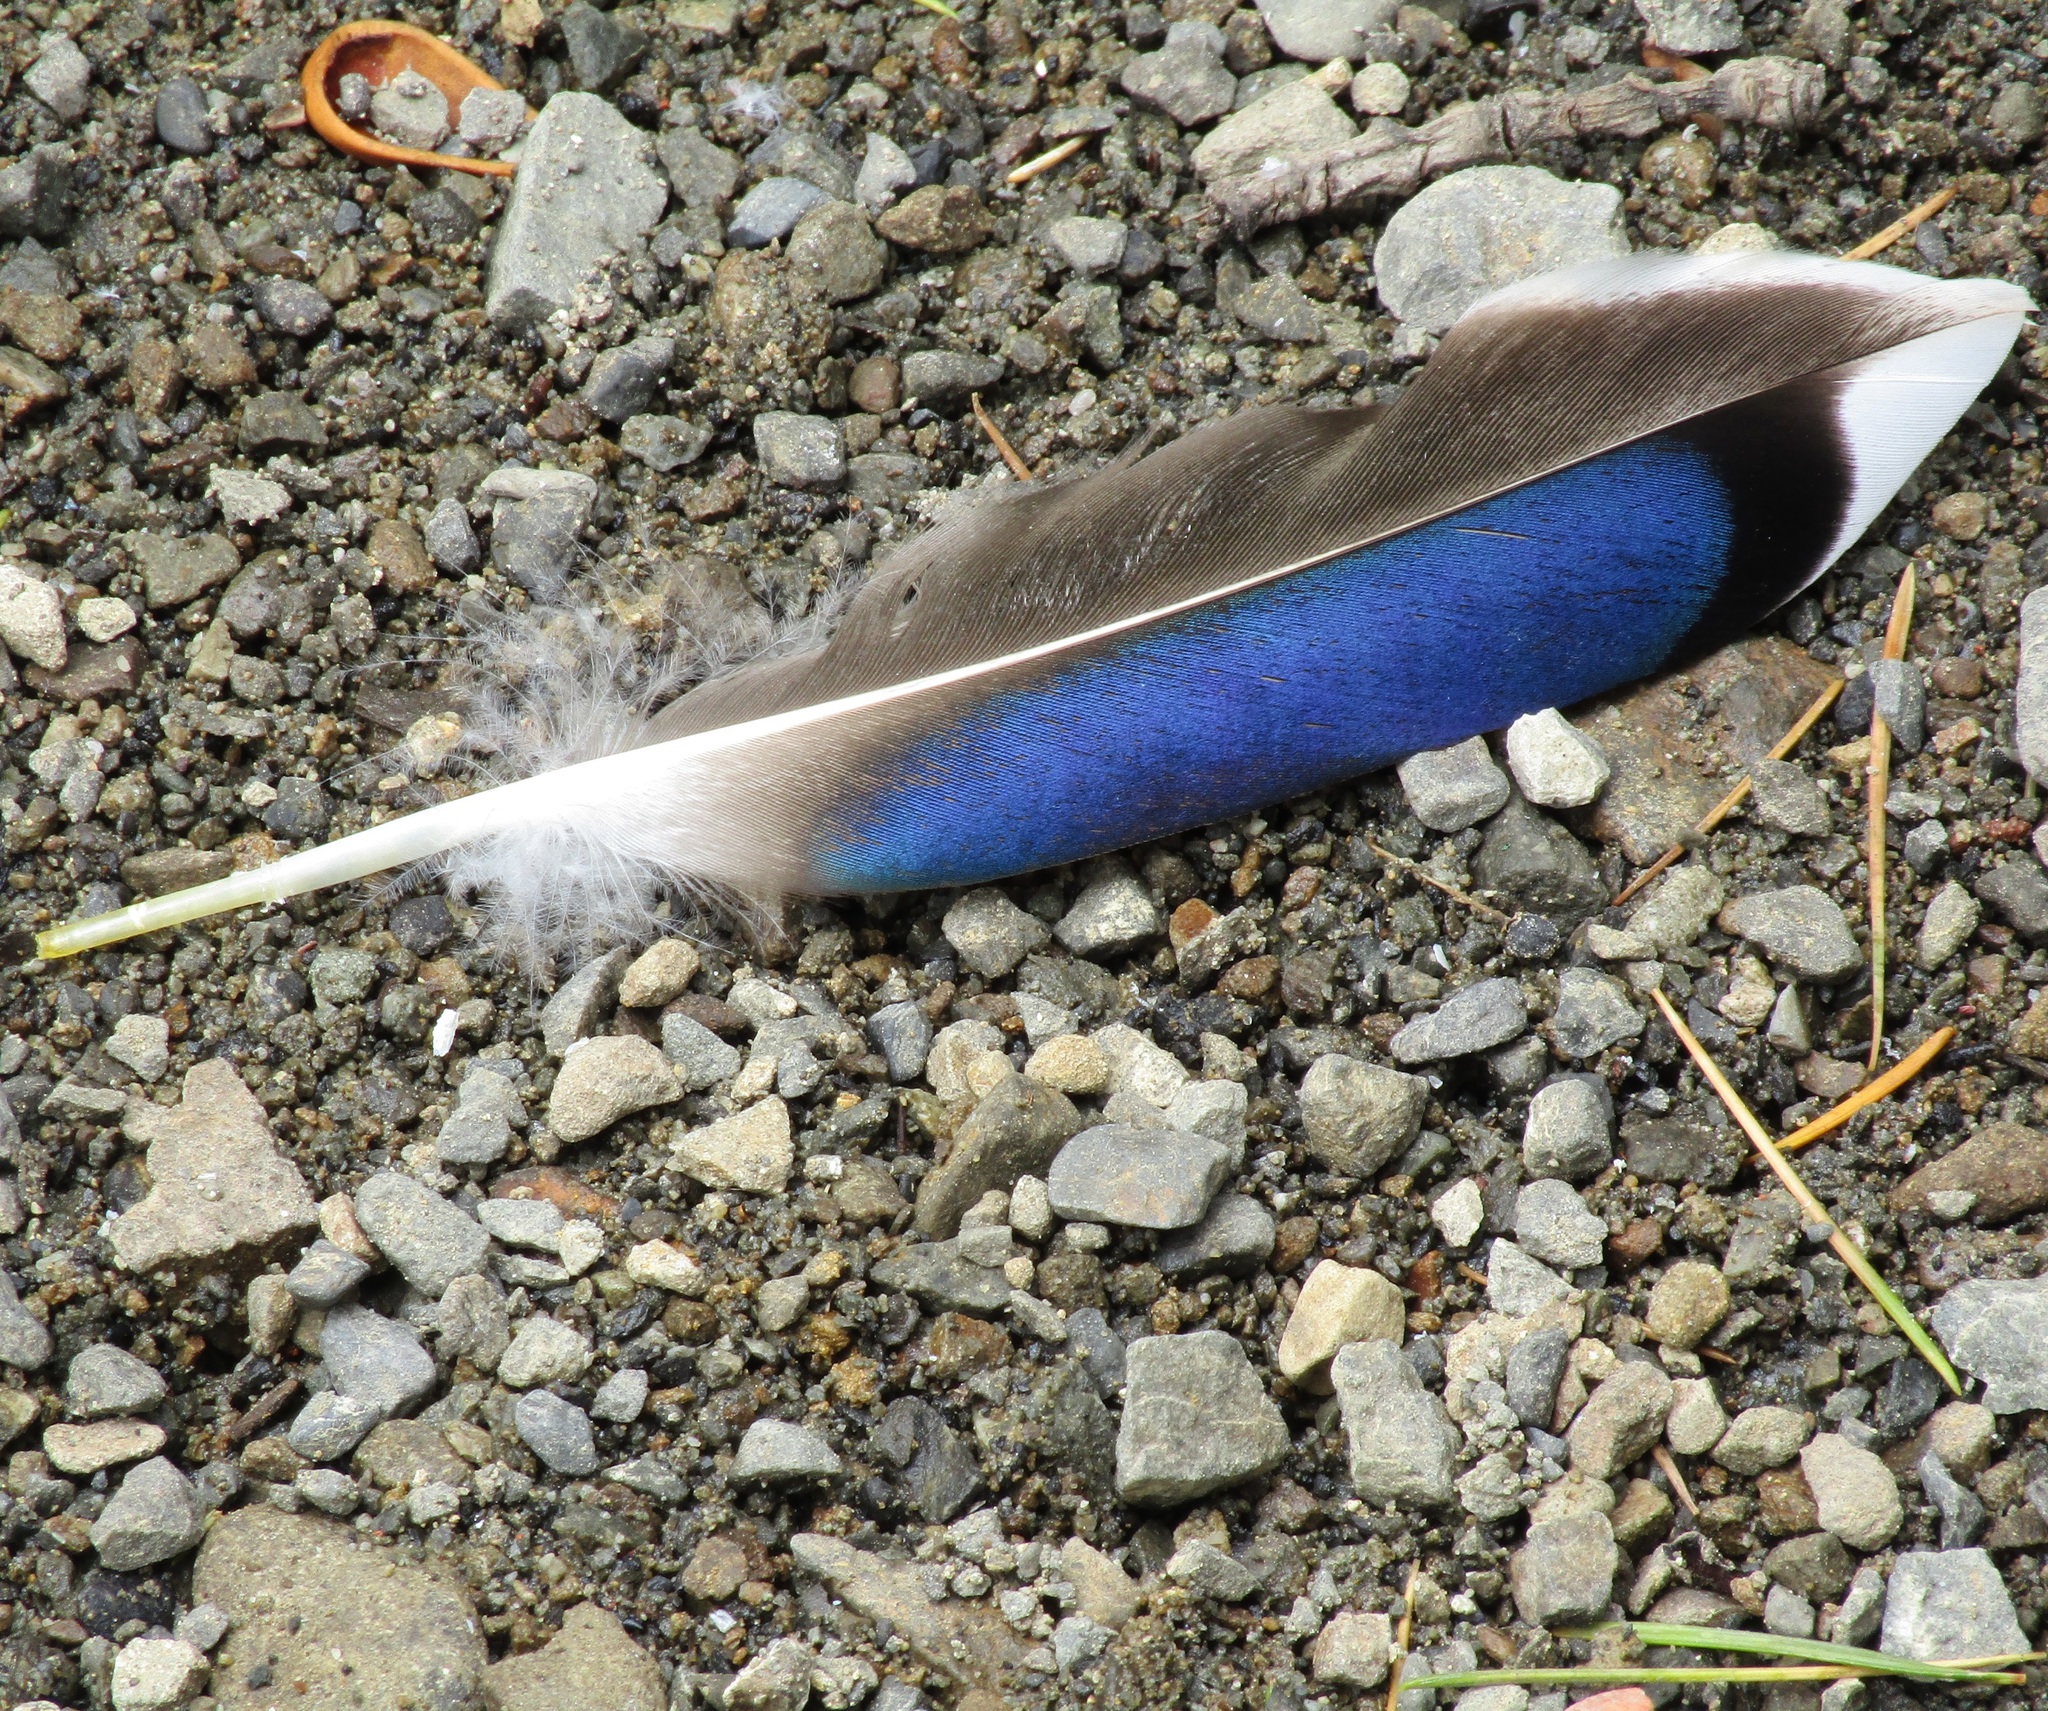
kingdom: Animalia
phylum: Chordata
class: Aves
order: Anseriformes
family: Anatidae
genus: Anas
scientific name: Anas platyrhynchos
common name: Mallard
